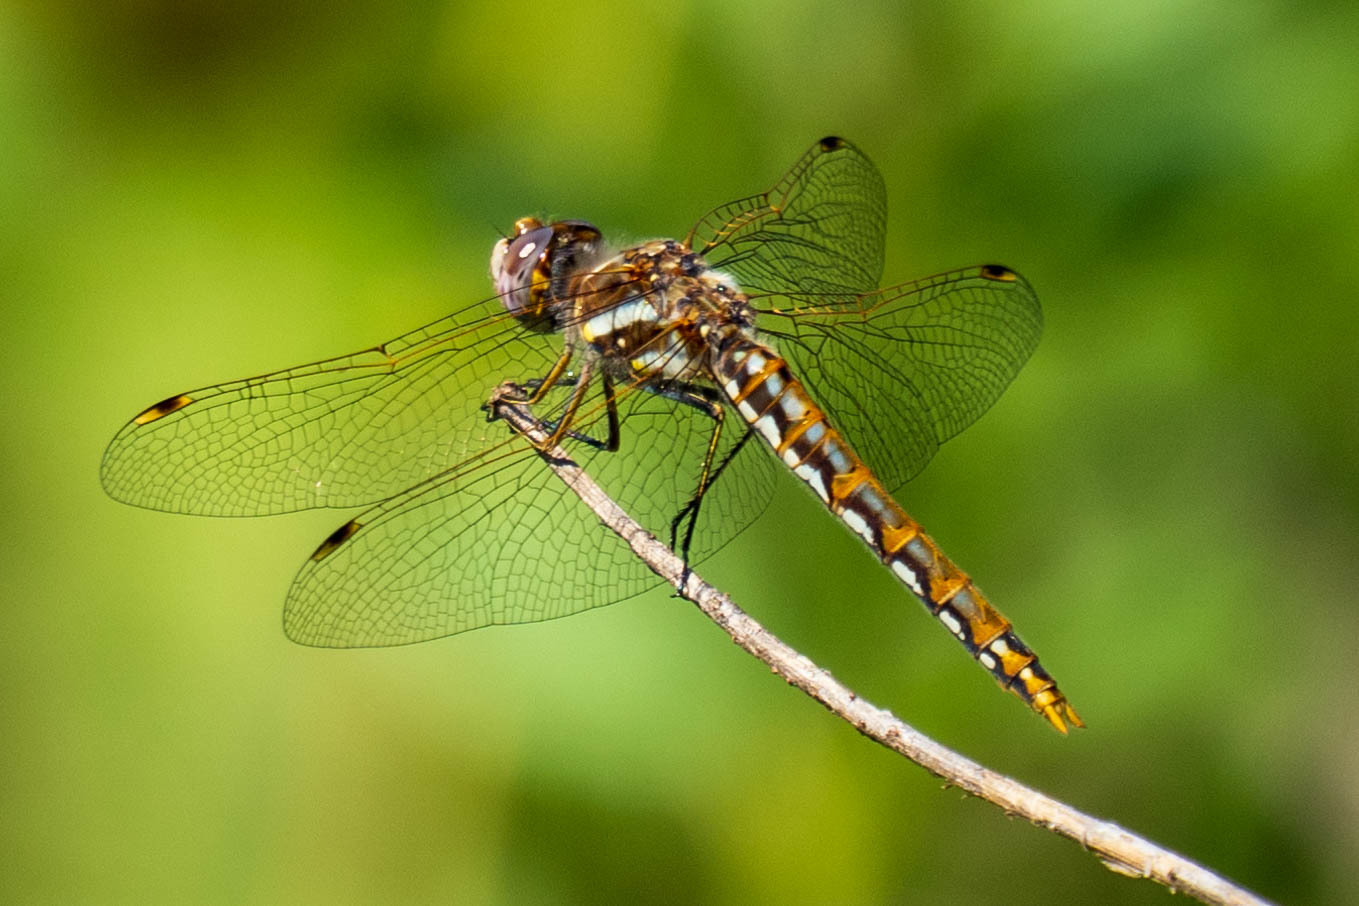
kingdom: Animalia
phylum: Arthropoda
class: Insecta
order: Odonata
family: Libellulidae
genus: Sympetrum
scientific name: Sympetrum corruptum
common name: Variegated meadowhawk
